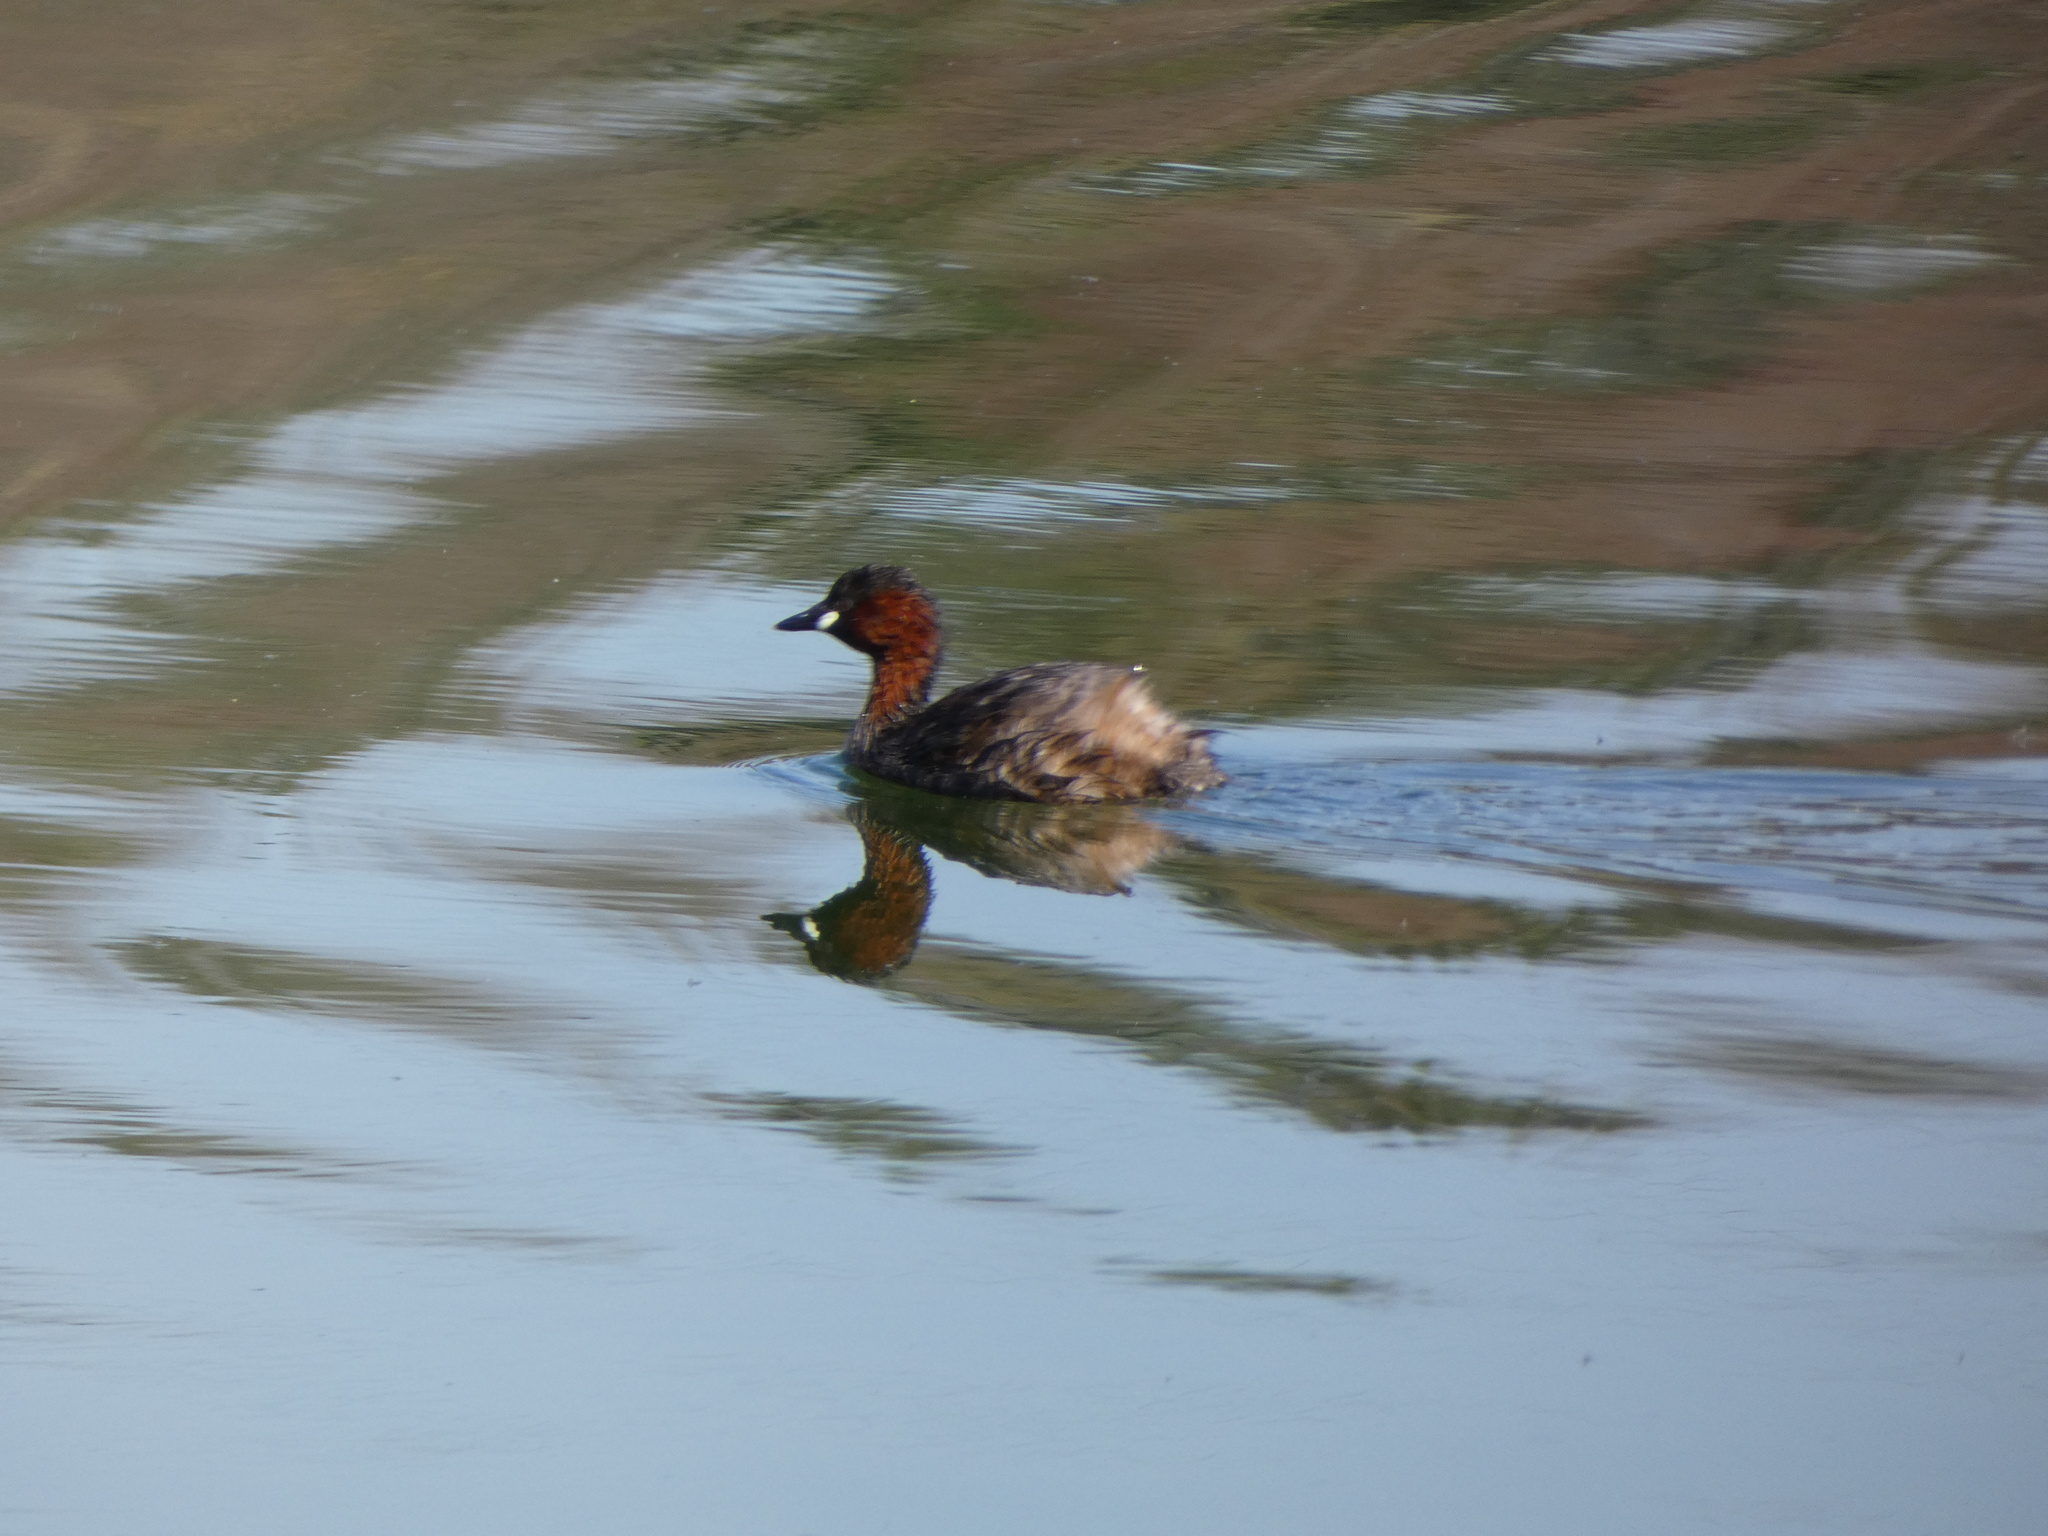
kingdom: Animalia
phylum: Chordata
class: Aves
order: Podicipediformes
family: Podicipedidae
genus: Tachybaptus
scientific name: Tachybaptus ruficollis
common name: Little grebe
